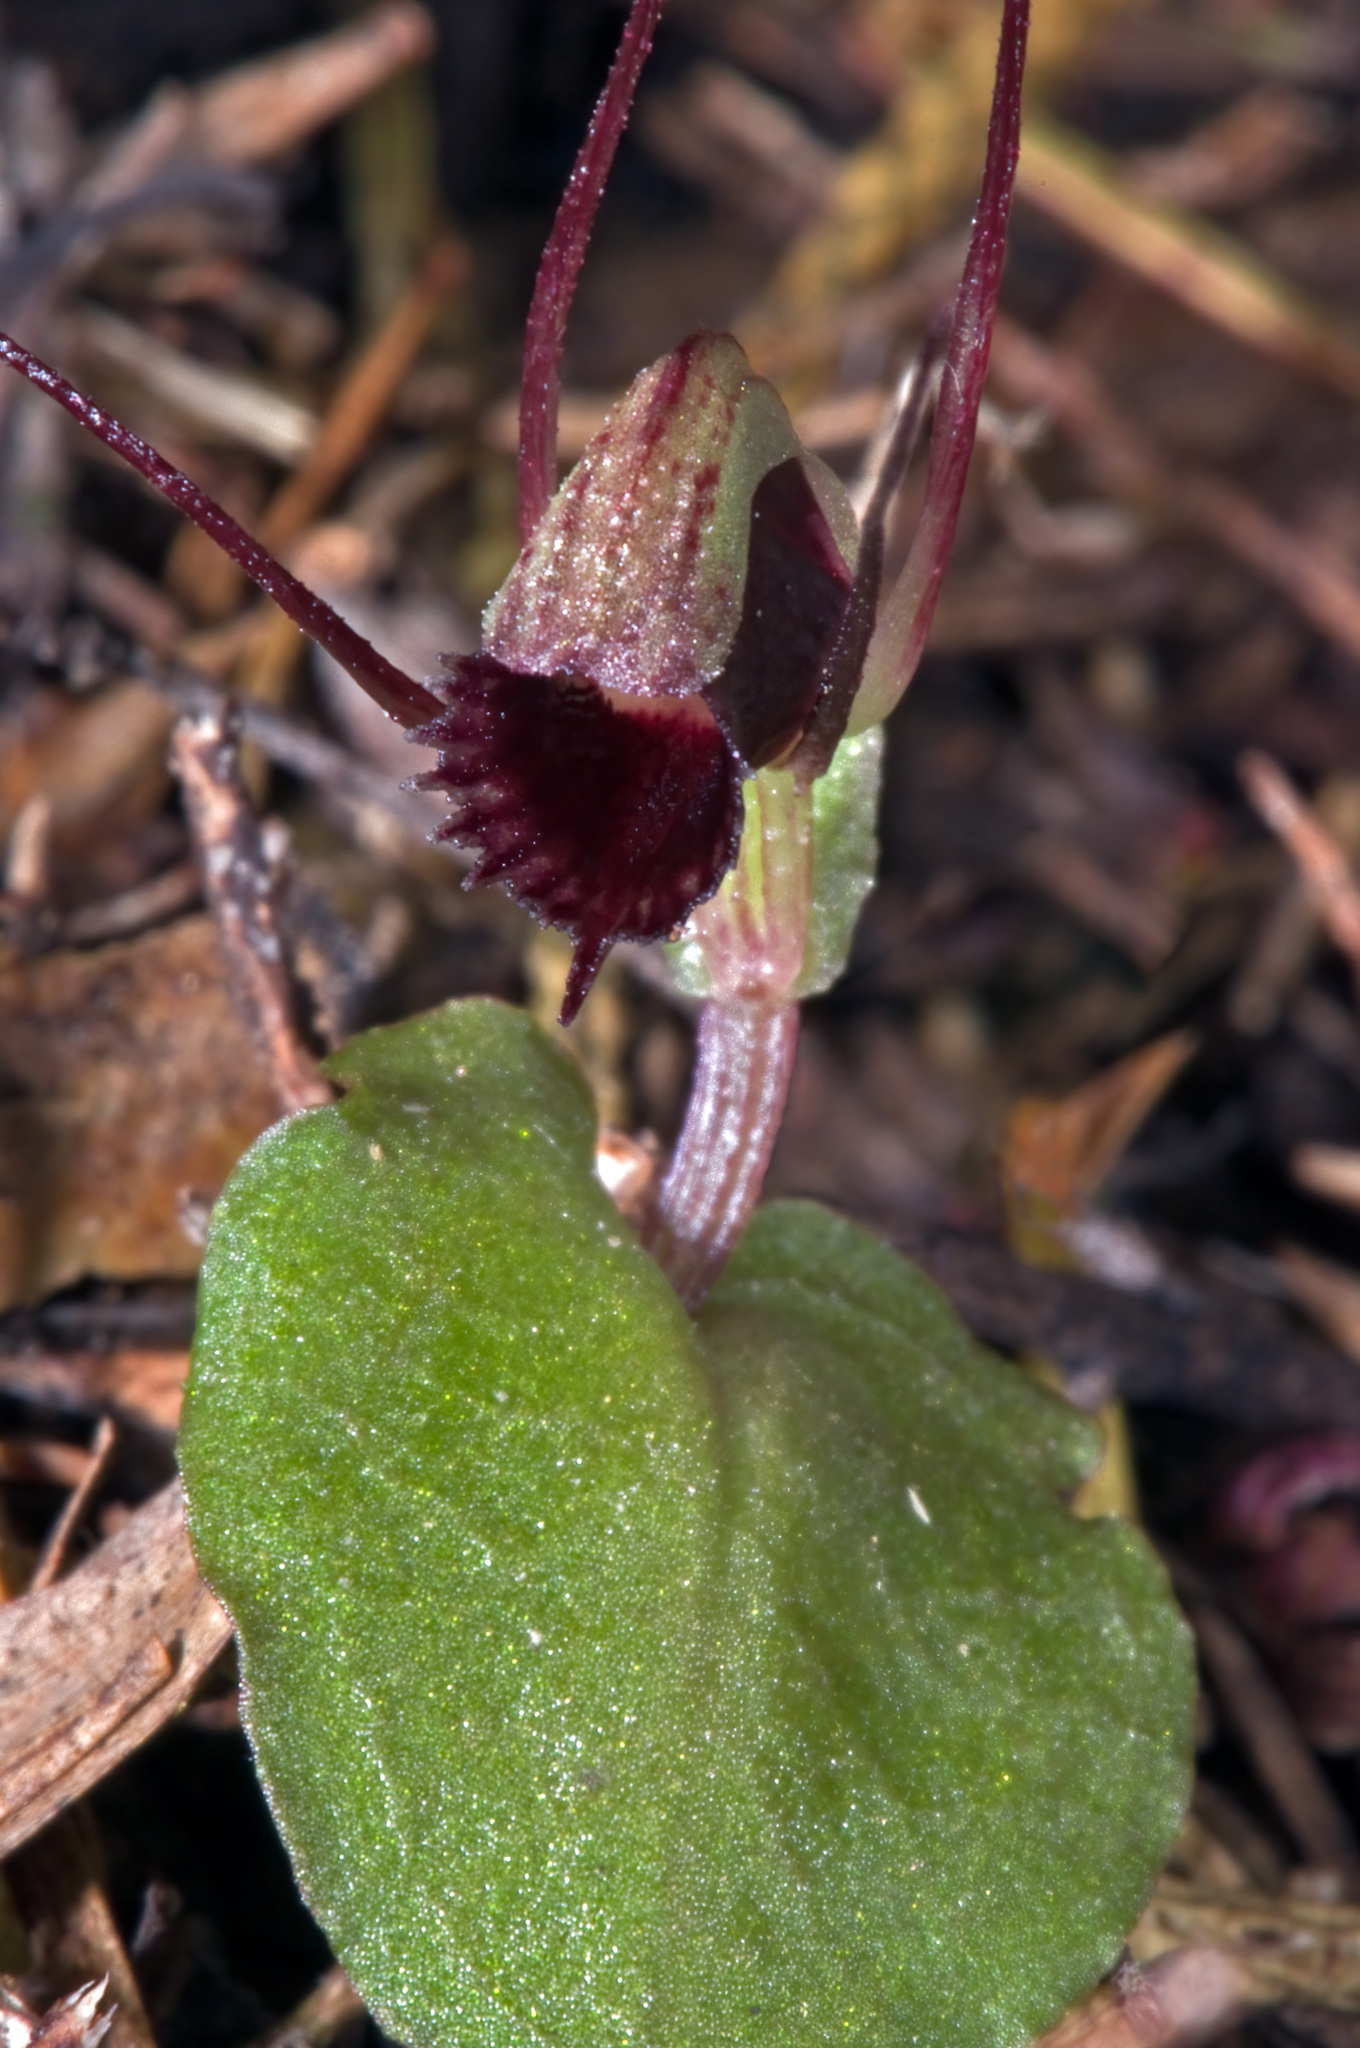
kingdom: Plantae
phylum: Tracheophyta
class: Liliopsida
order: Asparagales
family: Orchidaceae
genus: Corybas
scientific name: Corybas oblongus
